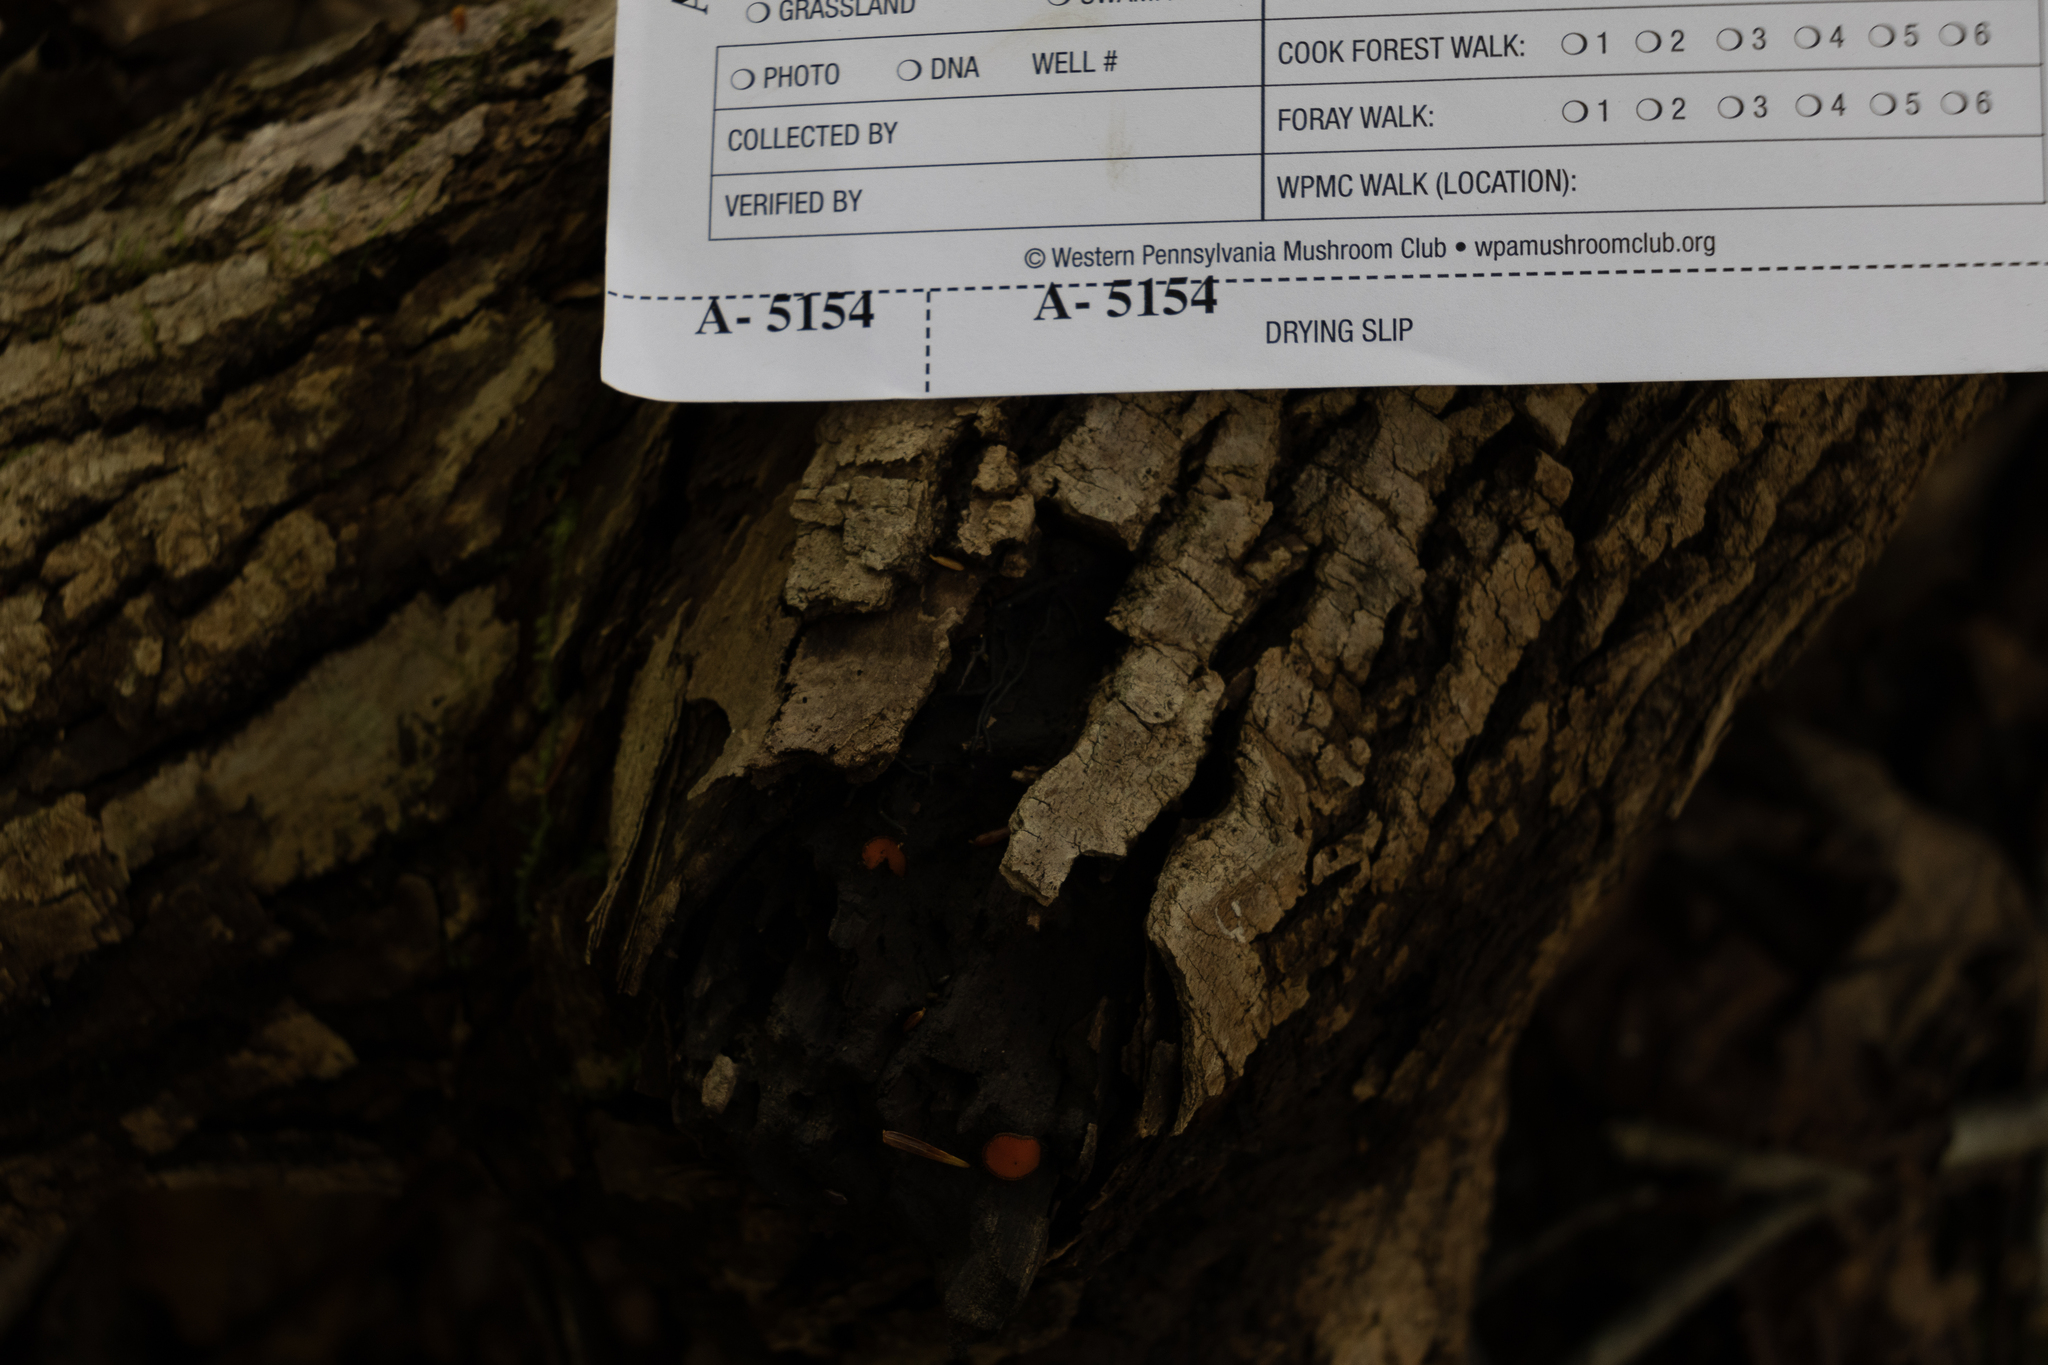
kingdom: Fungi
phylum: Ascomycota
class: Pezizomycetes
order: Pezizales
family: Pyronemataceae
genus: Scutellinia
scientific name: Scutellinia colensoi
